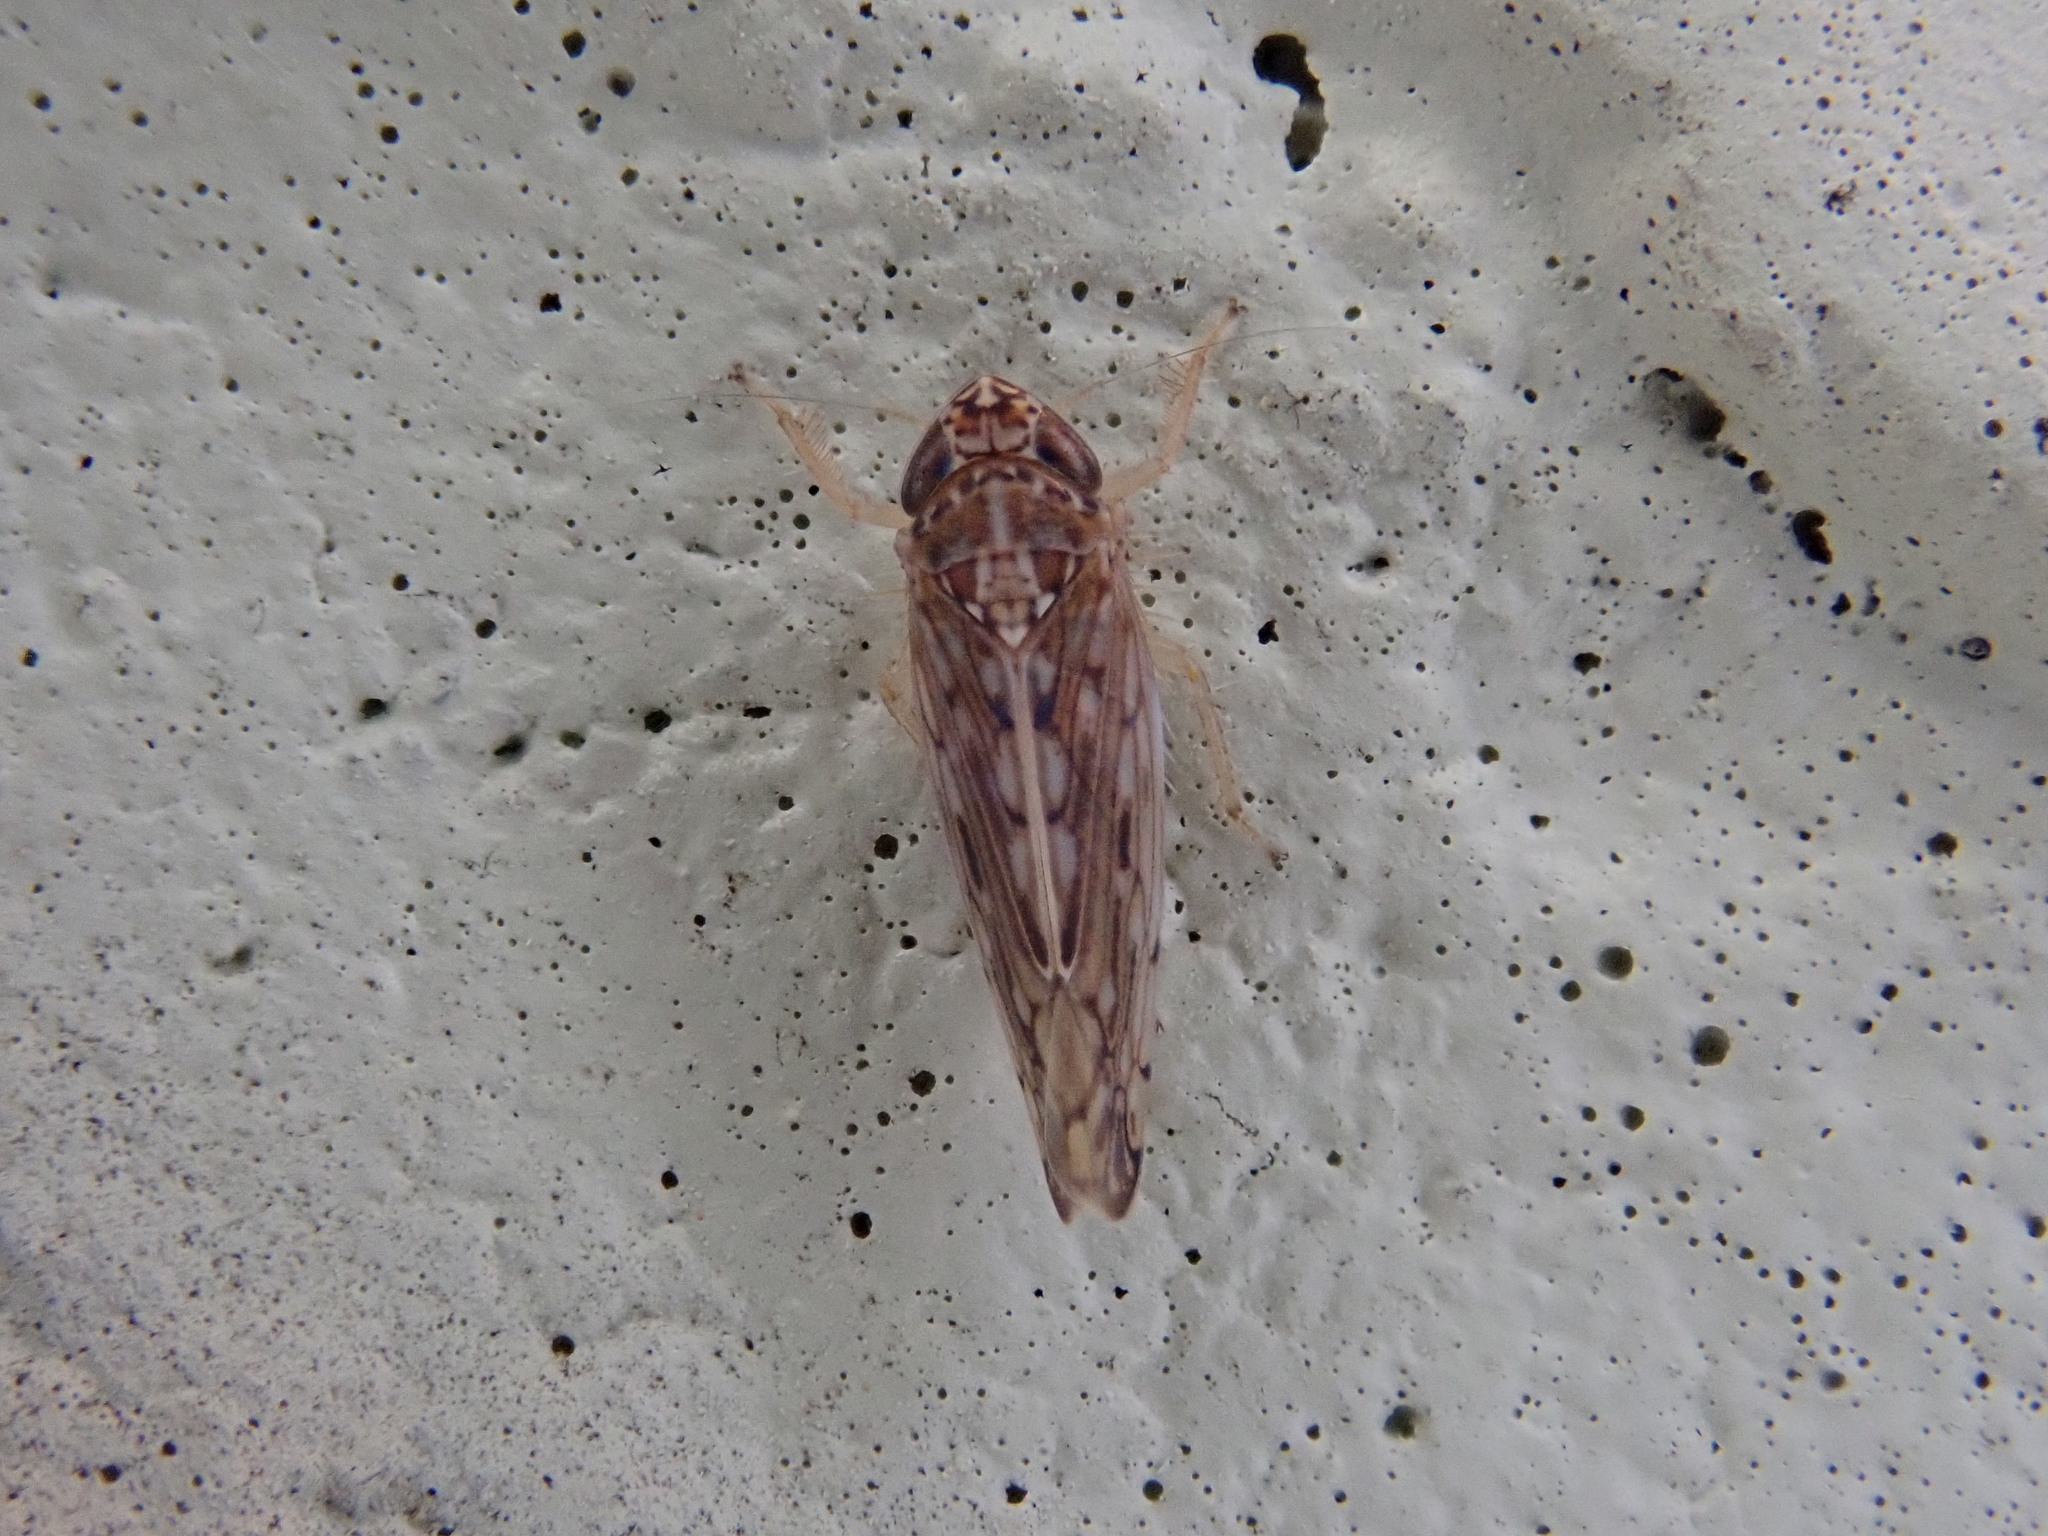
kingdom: Animalia
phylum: Arthropoda
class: Insecta
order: Hemiptera
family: Cicadellidae
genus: Osbornellus
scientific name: Osbornellus clarus
